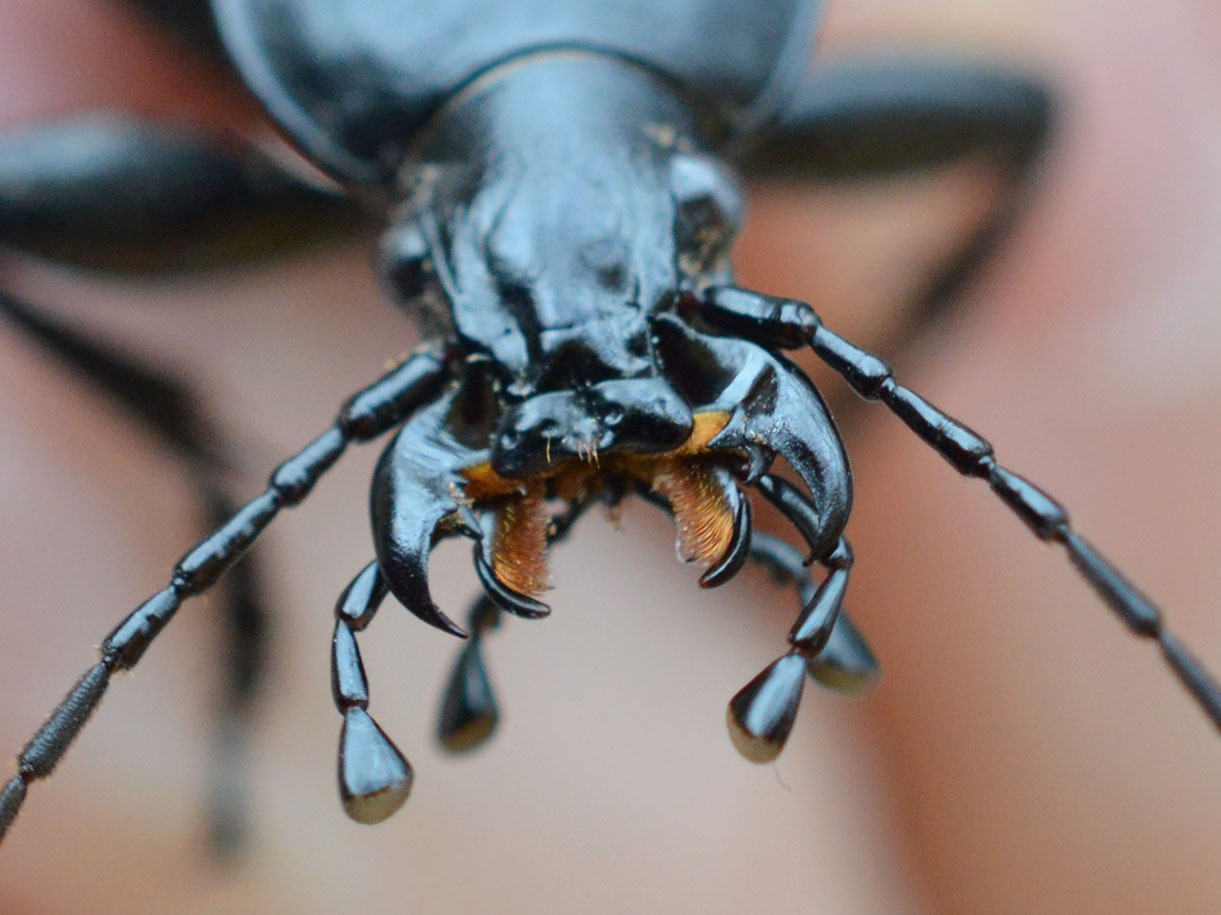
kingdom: Animalia
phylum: Arthropoda
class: Insecta
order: Coleoptera
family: Carabidae
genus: Carabus
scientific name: Carabus coriaceus
